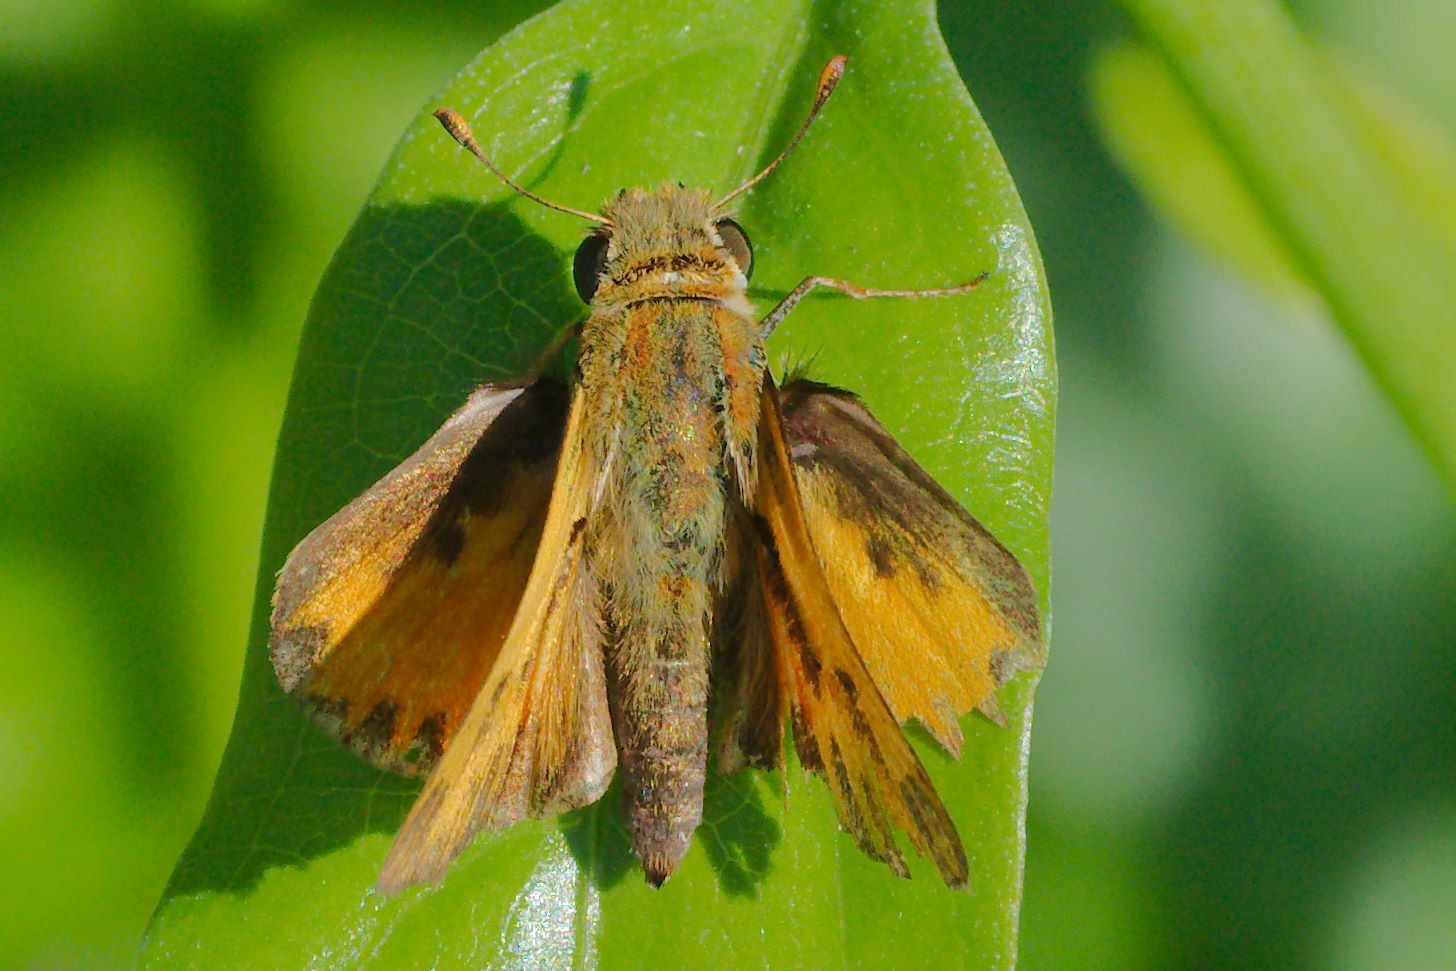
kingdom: Animalia
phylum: Arthropoda
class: Insecta
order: Lepidoptera
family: Hesperiidae
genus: Hylephila
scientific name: Hylephila phyleus
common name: Fiery skipper
